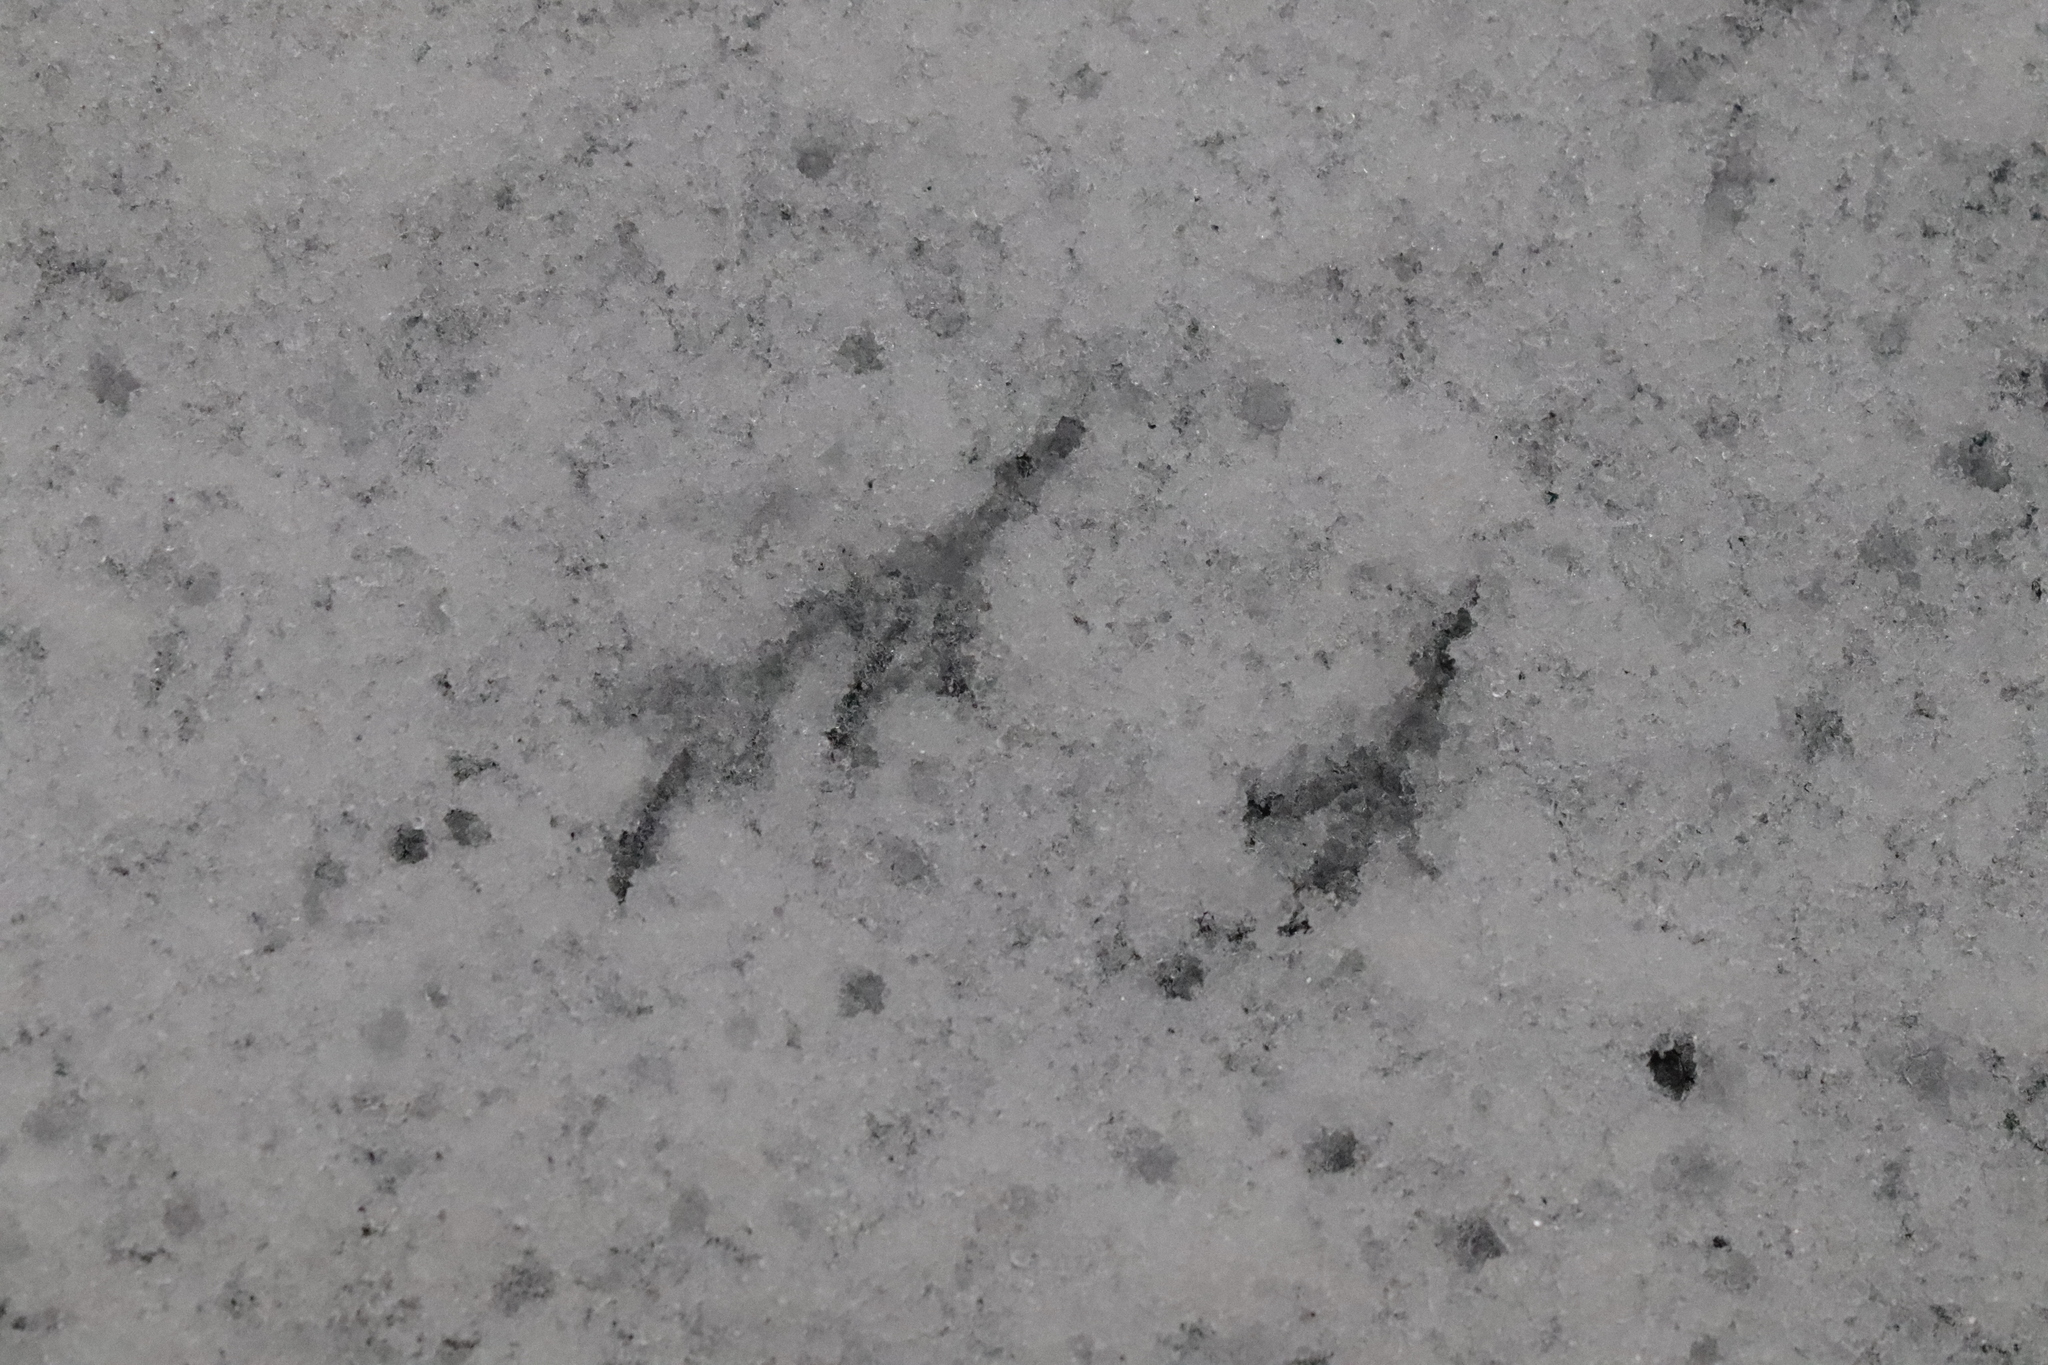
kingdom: Animalia
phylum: Chordata
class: Aves
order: Passeriformes
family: Passerellidae
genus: Junco
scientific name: Junco hyemalis
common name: Dark-eyed junco
